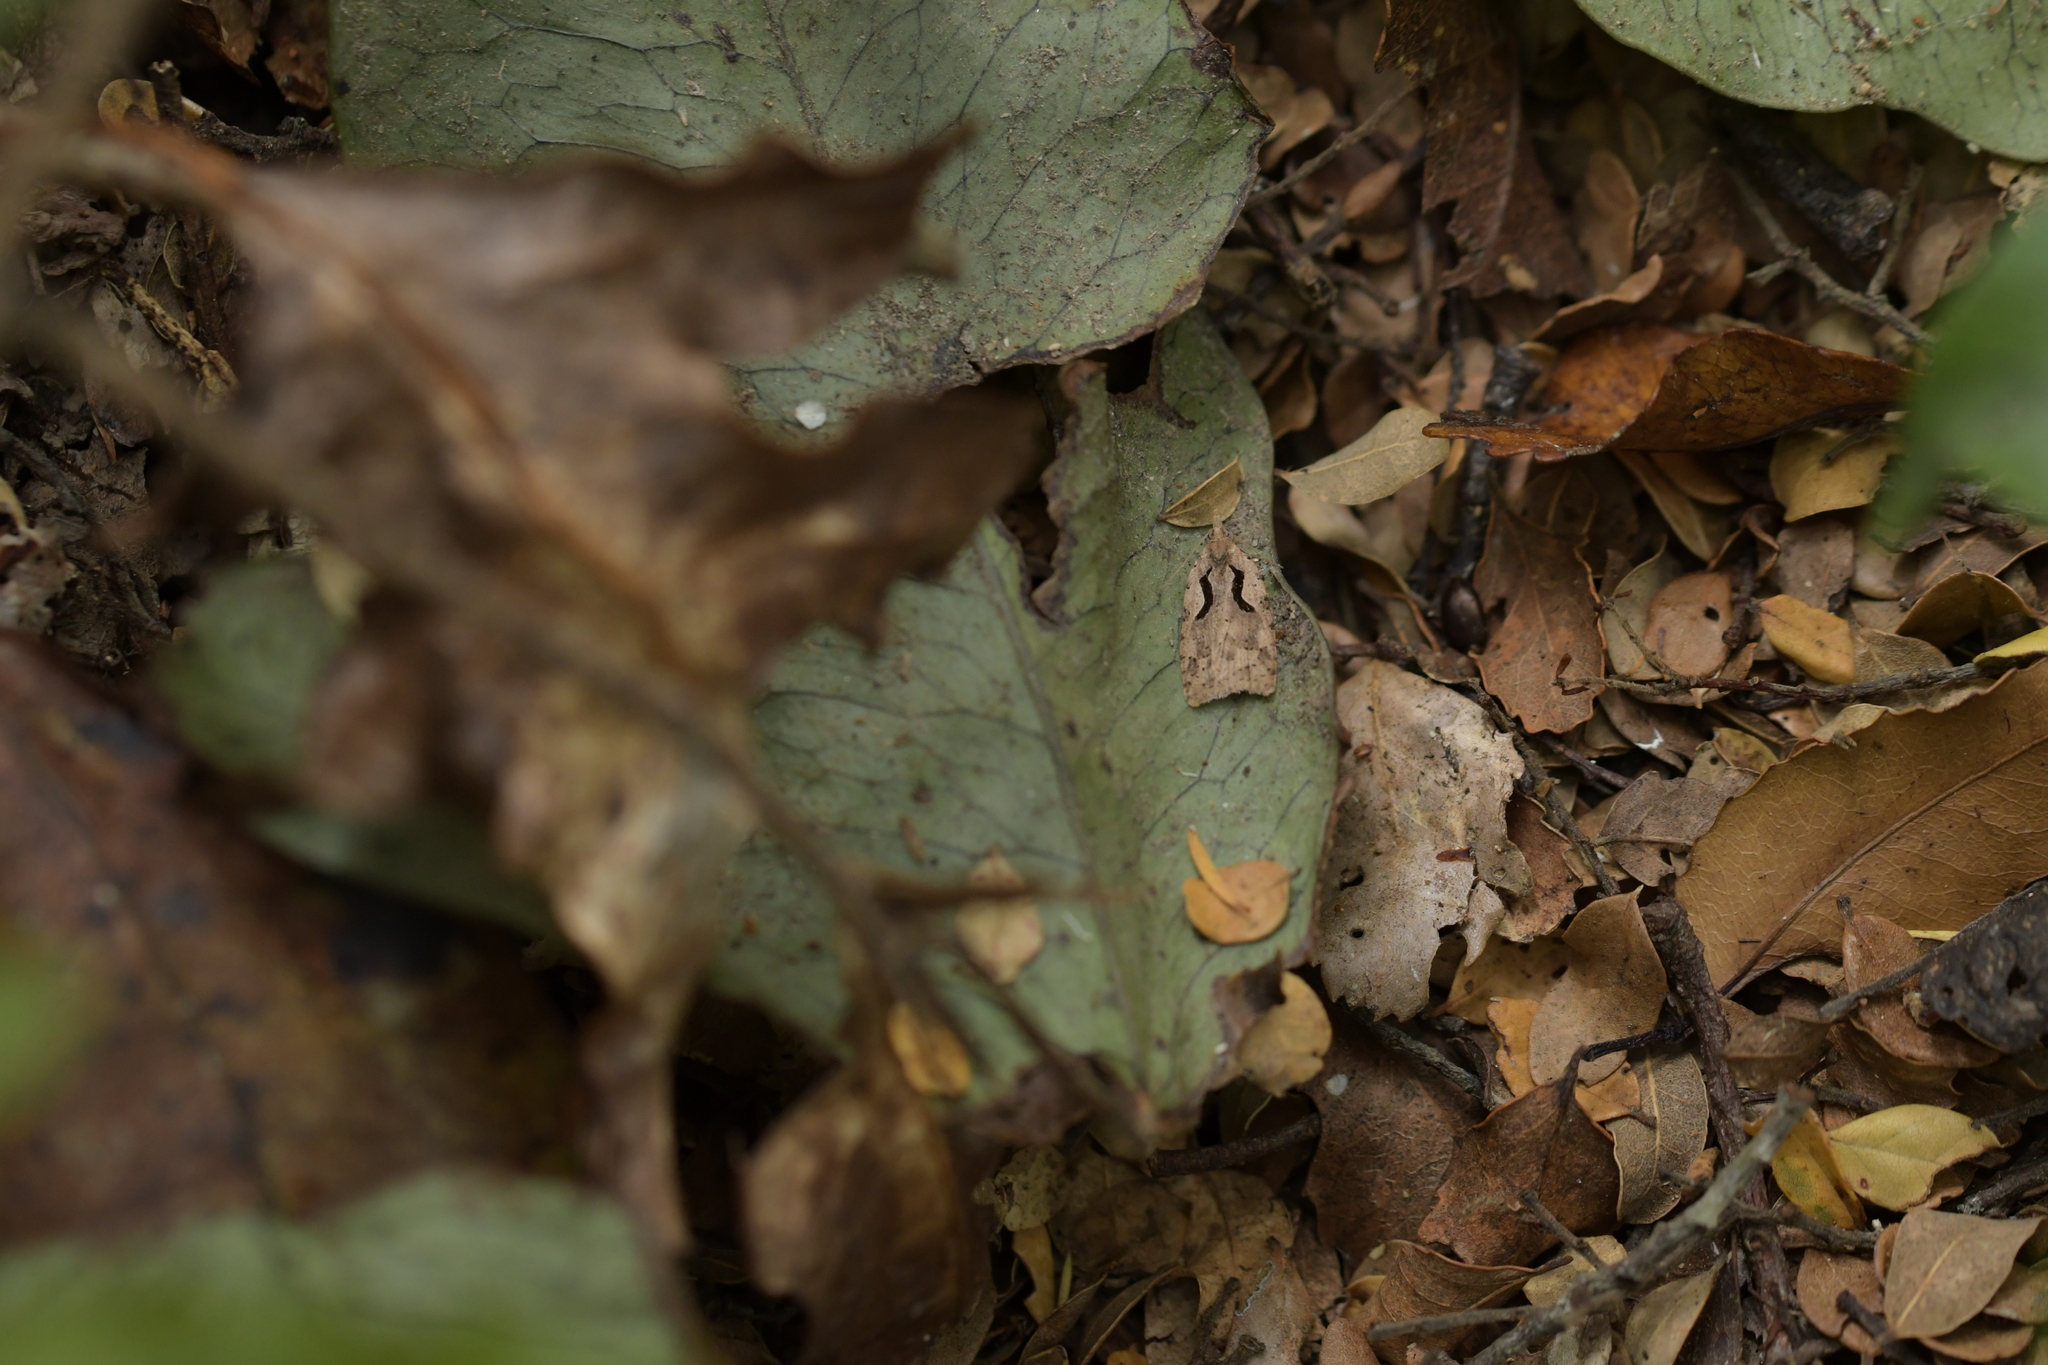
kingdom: Animalia
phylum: Arthropoda
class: Insecta
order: Lepidoptera
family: Tortricidae
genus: Cnephasia
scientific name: Cnephasia jactatana
